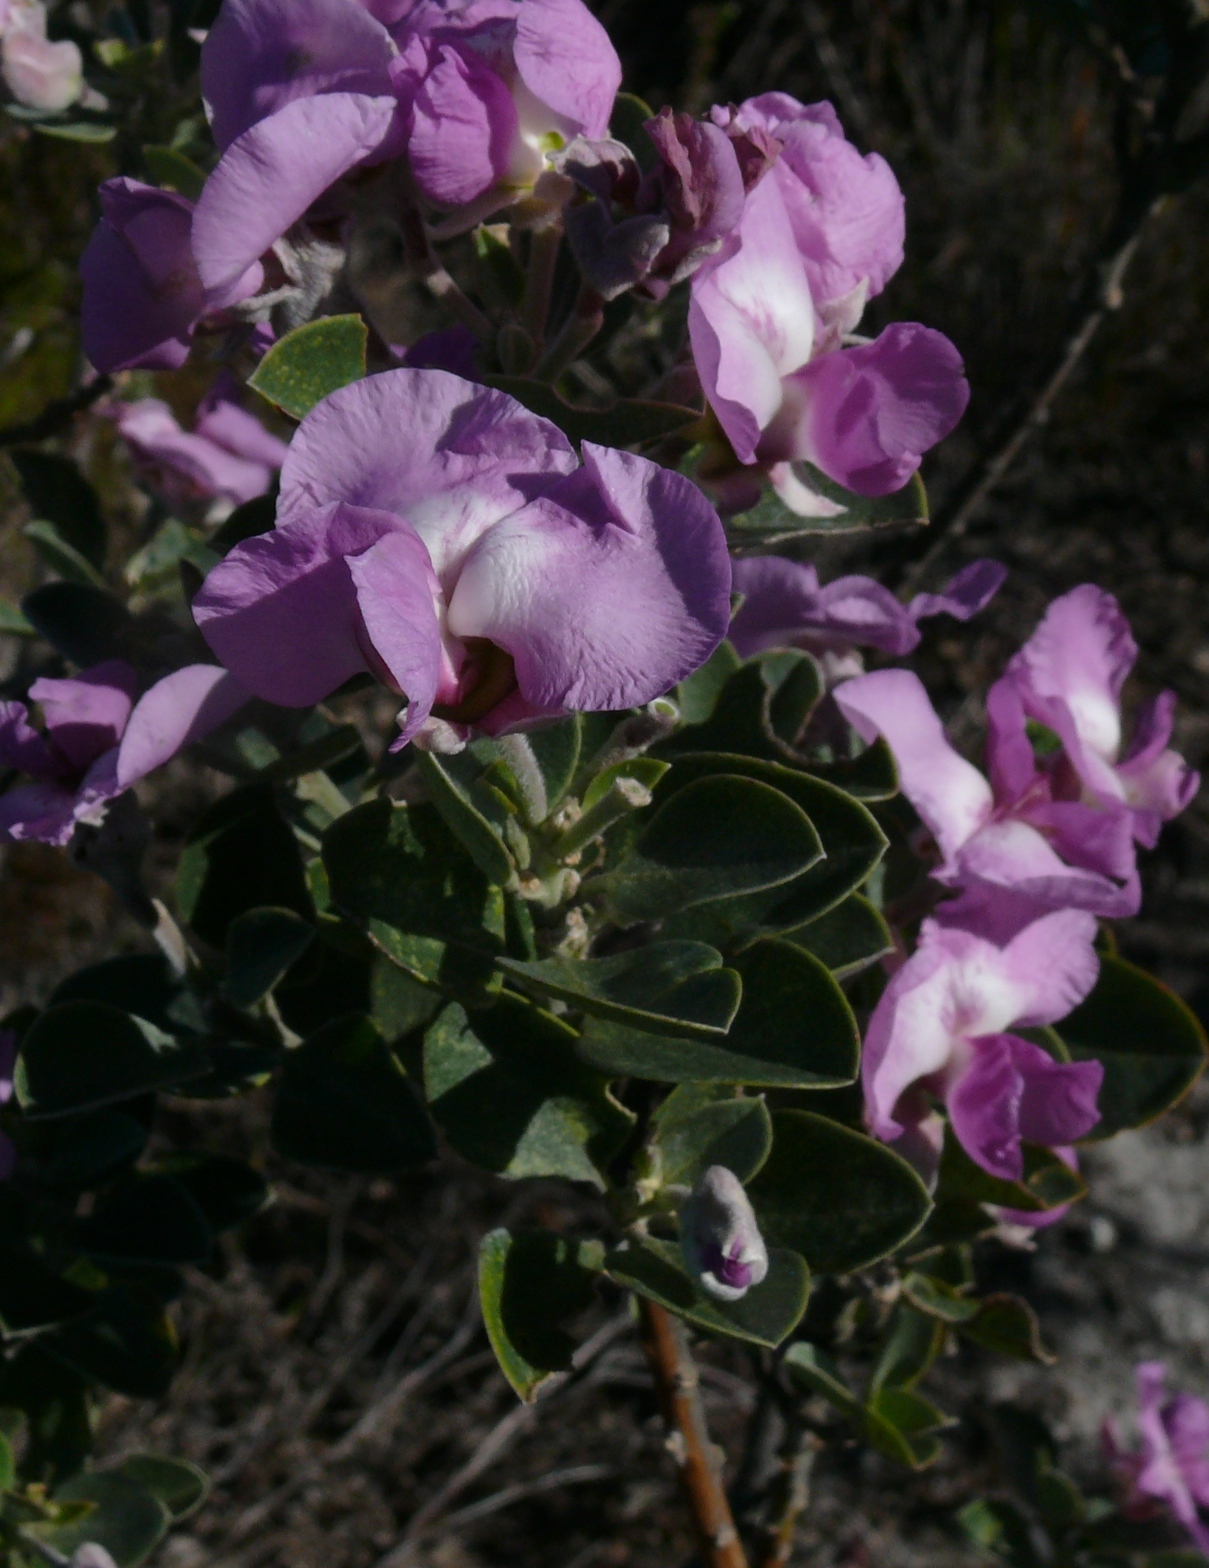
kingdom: Plantae
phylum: Tracheophyta
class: Magnoliopsida
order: Fabales
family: Fabaceae
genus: Podalyria
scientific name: Podalyria calyptrata
